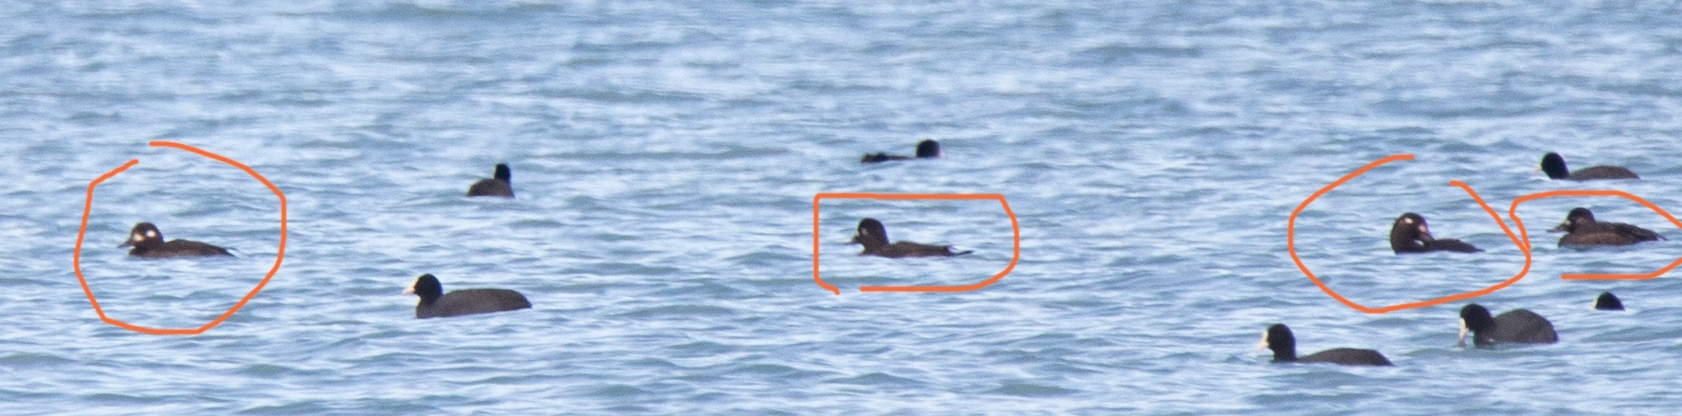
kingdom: Animalia
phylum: Chordata
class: Aves
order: Anseriformes
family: Anatidae
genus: Melanitta
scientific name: Melanitta fusca
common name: Velvet scoter
